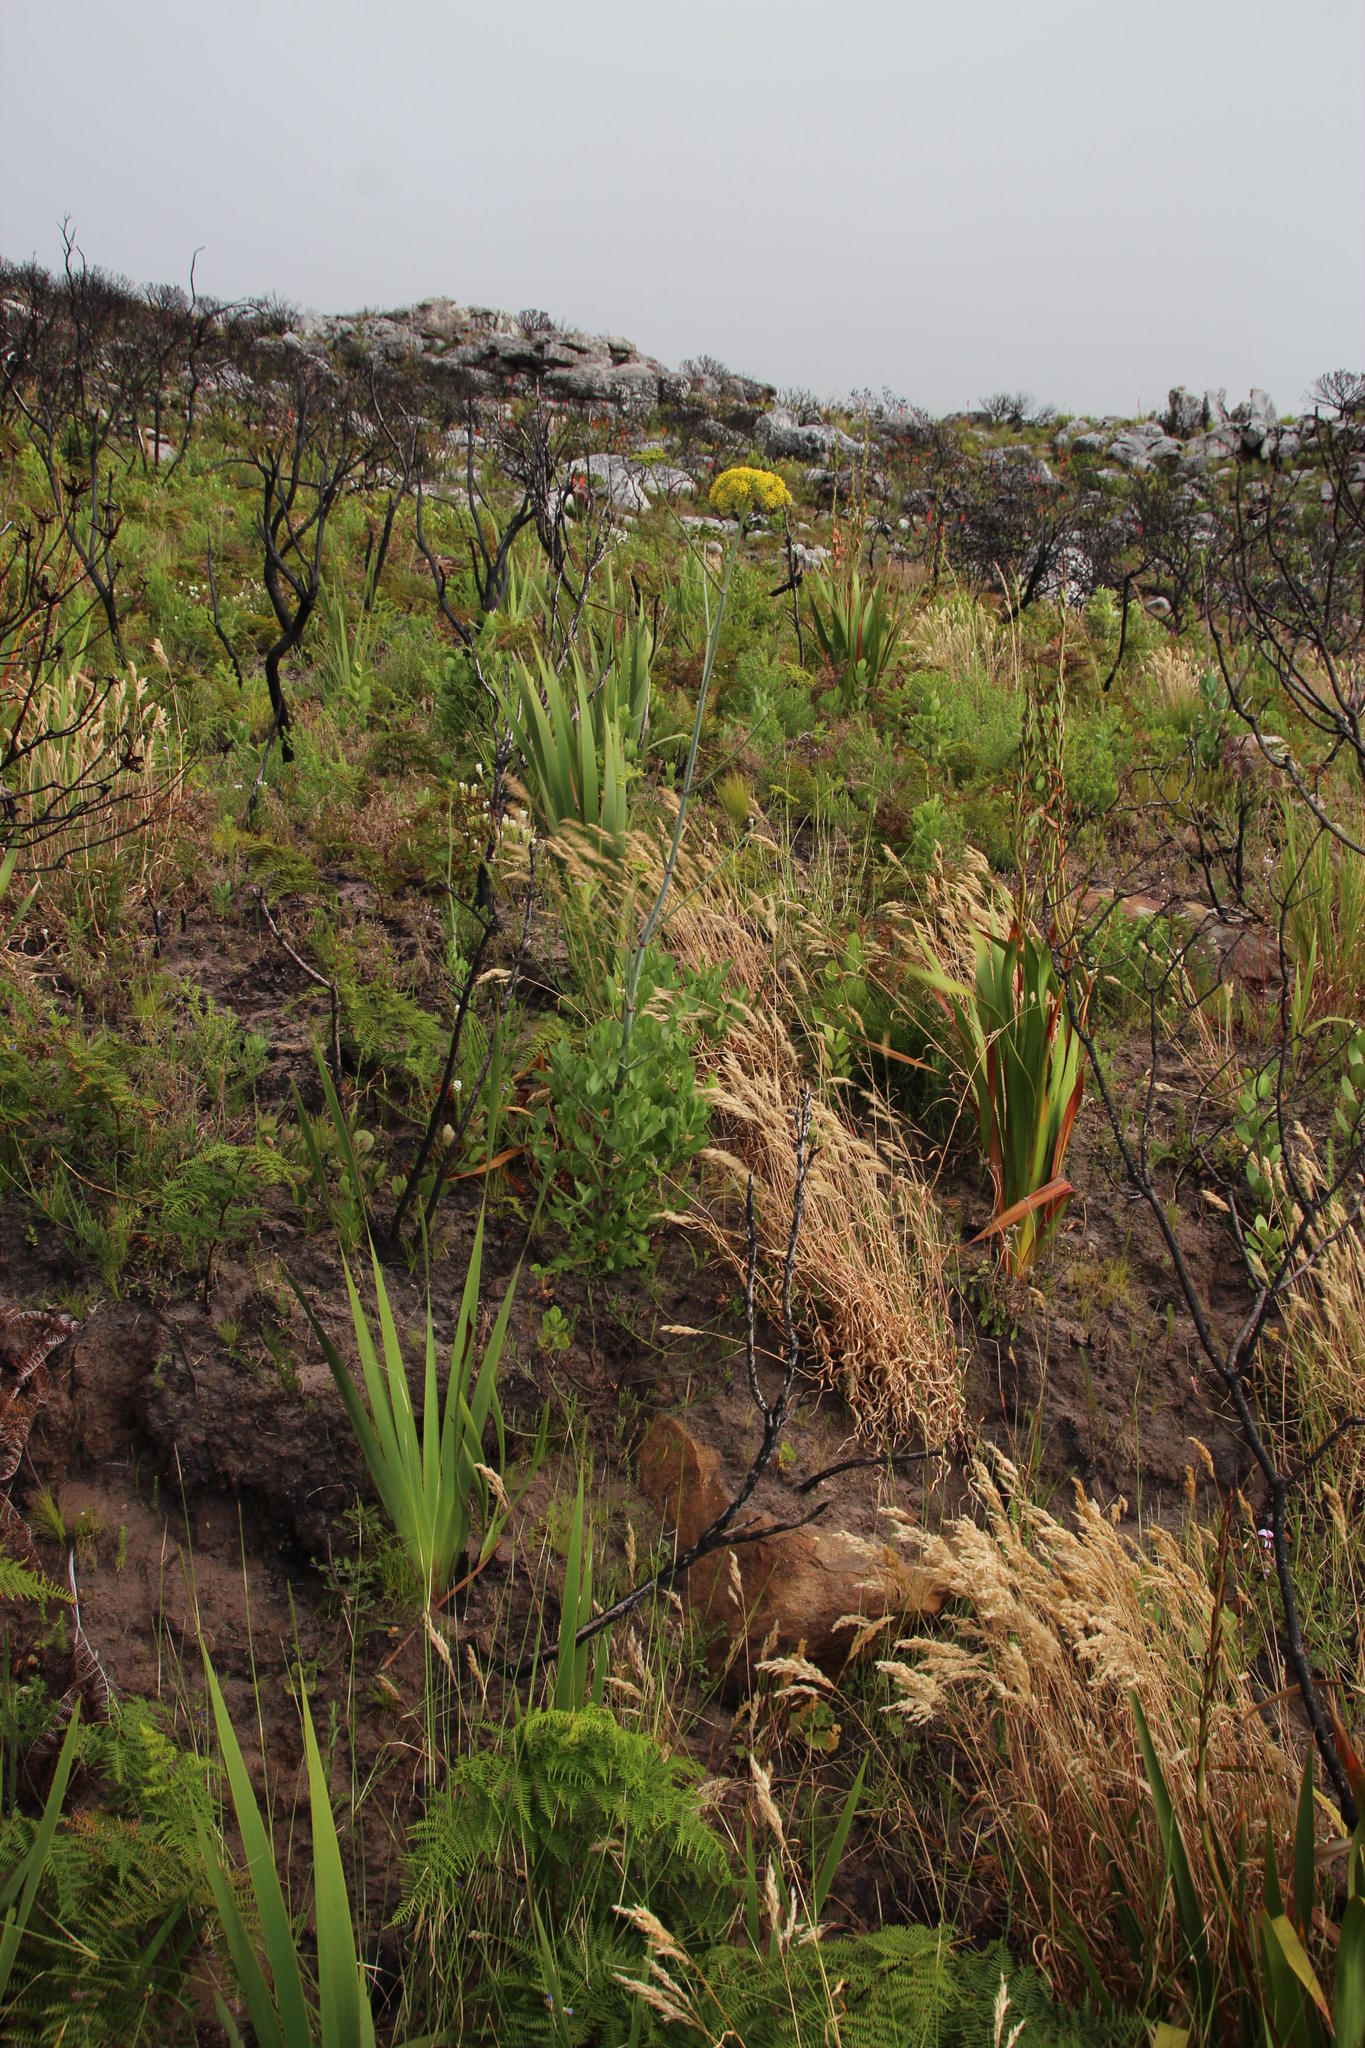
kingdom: Plantae
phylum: Tracheophyta
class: Magnoliopsida
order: Apiales
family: Apiaceae
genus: Notobubon
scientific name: Notobubon galbanum
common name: Blisterbush
